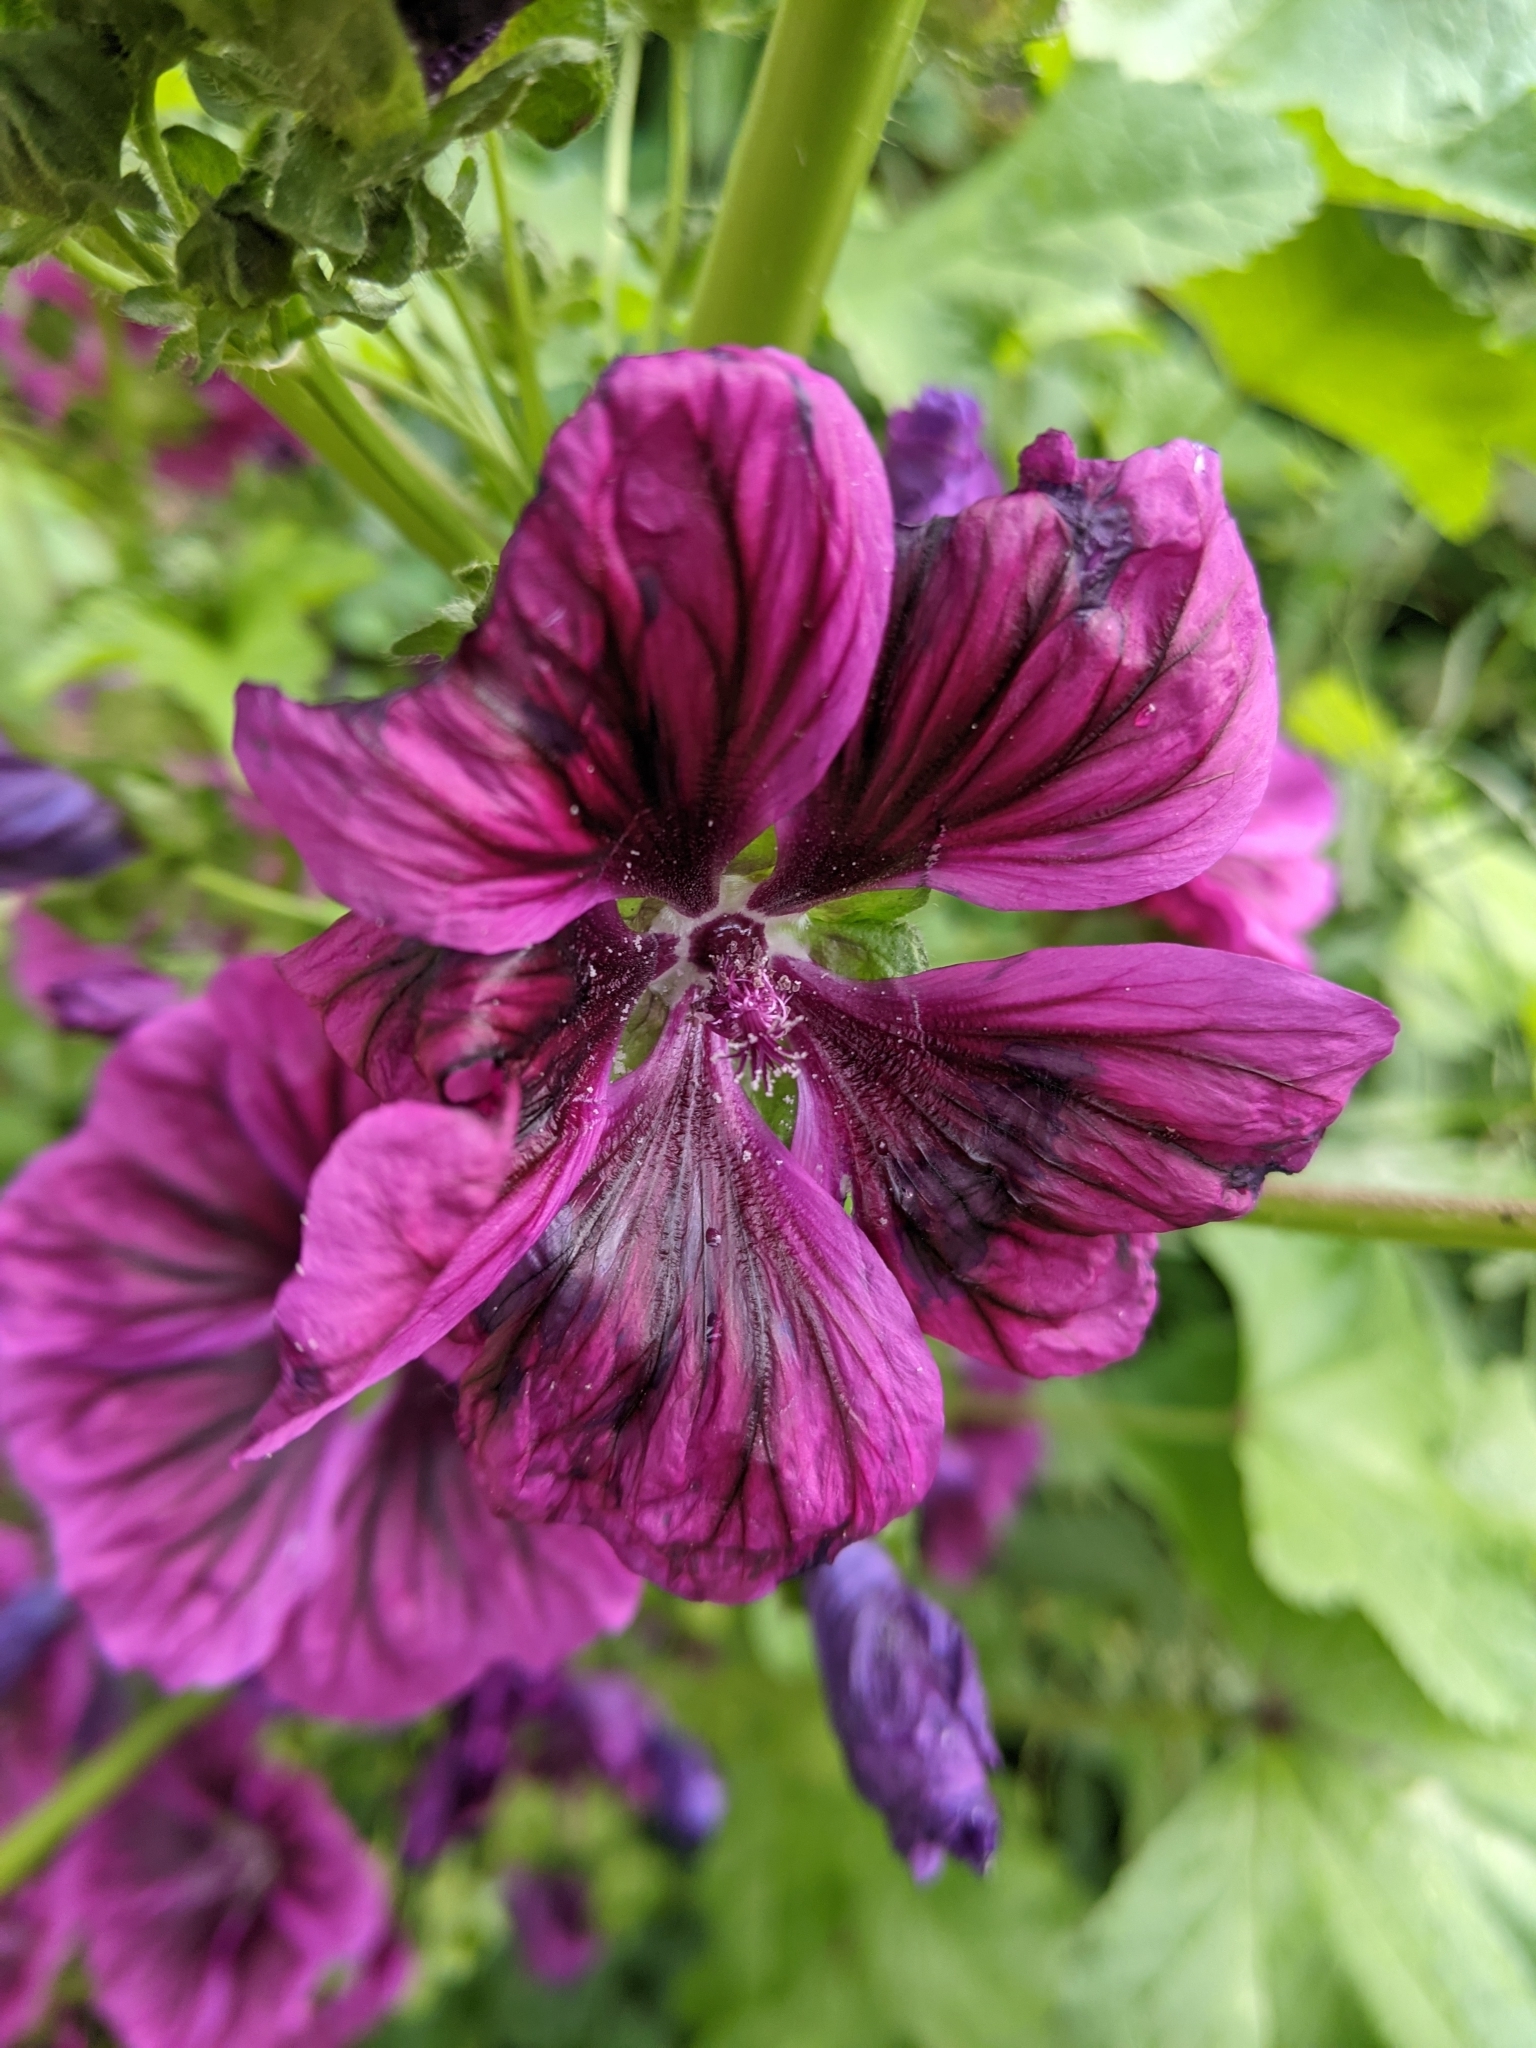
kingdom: Plantae
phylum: Tracheophyta
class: Magnoliopsida
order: Malvales
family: Malvaceae
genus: Malva
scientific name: Malva sylvestris
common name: Common mallow
